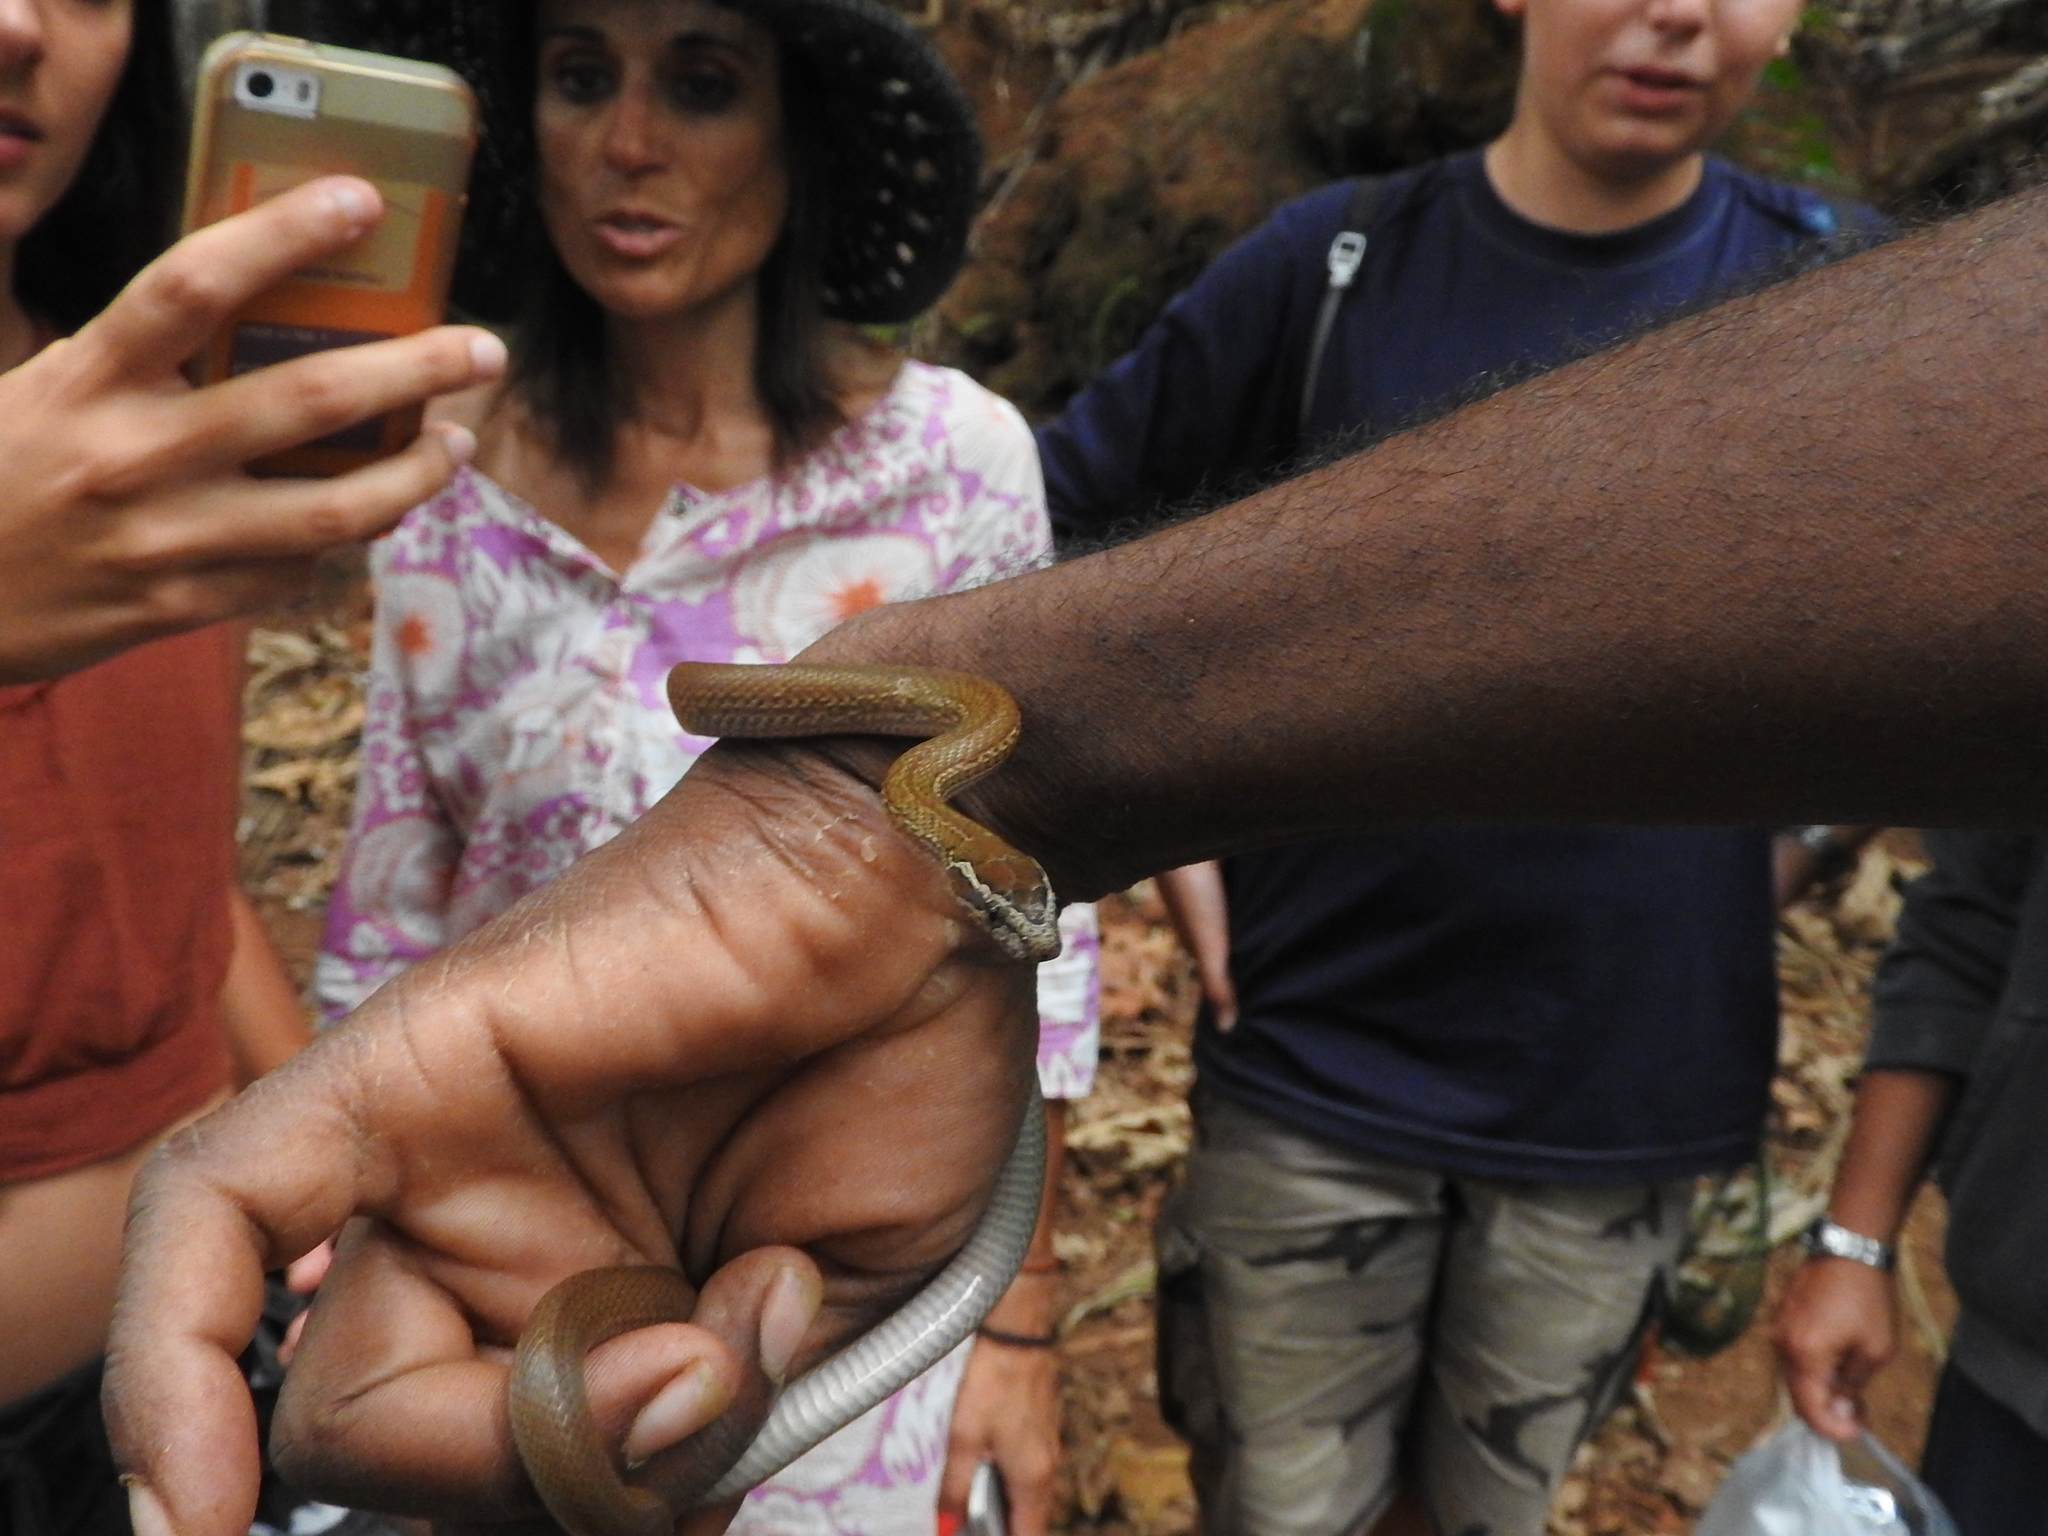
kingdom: Animalia
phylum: Chordata
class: Squamata
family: Lamprophiidae
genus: Boaedon
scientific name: Boaedon bedriagae
